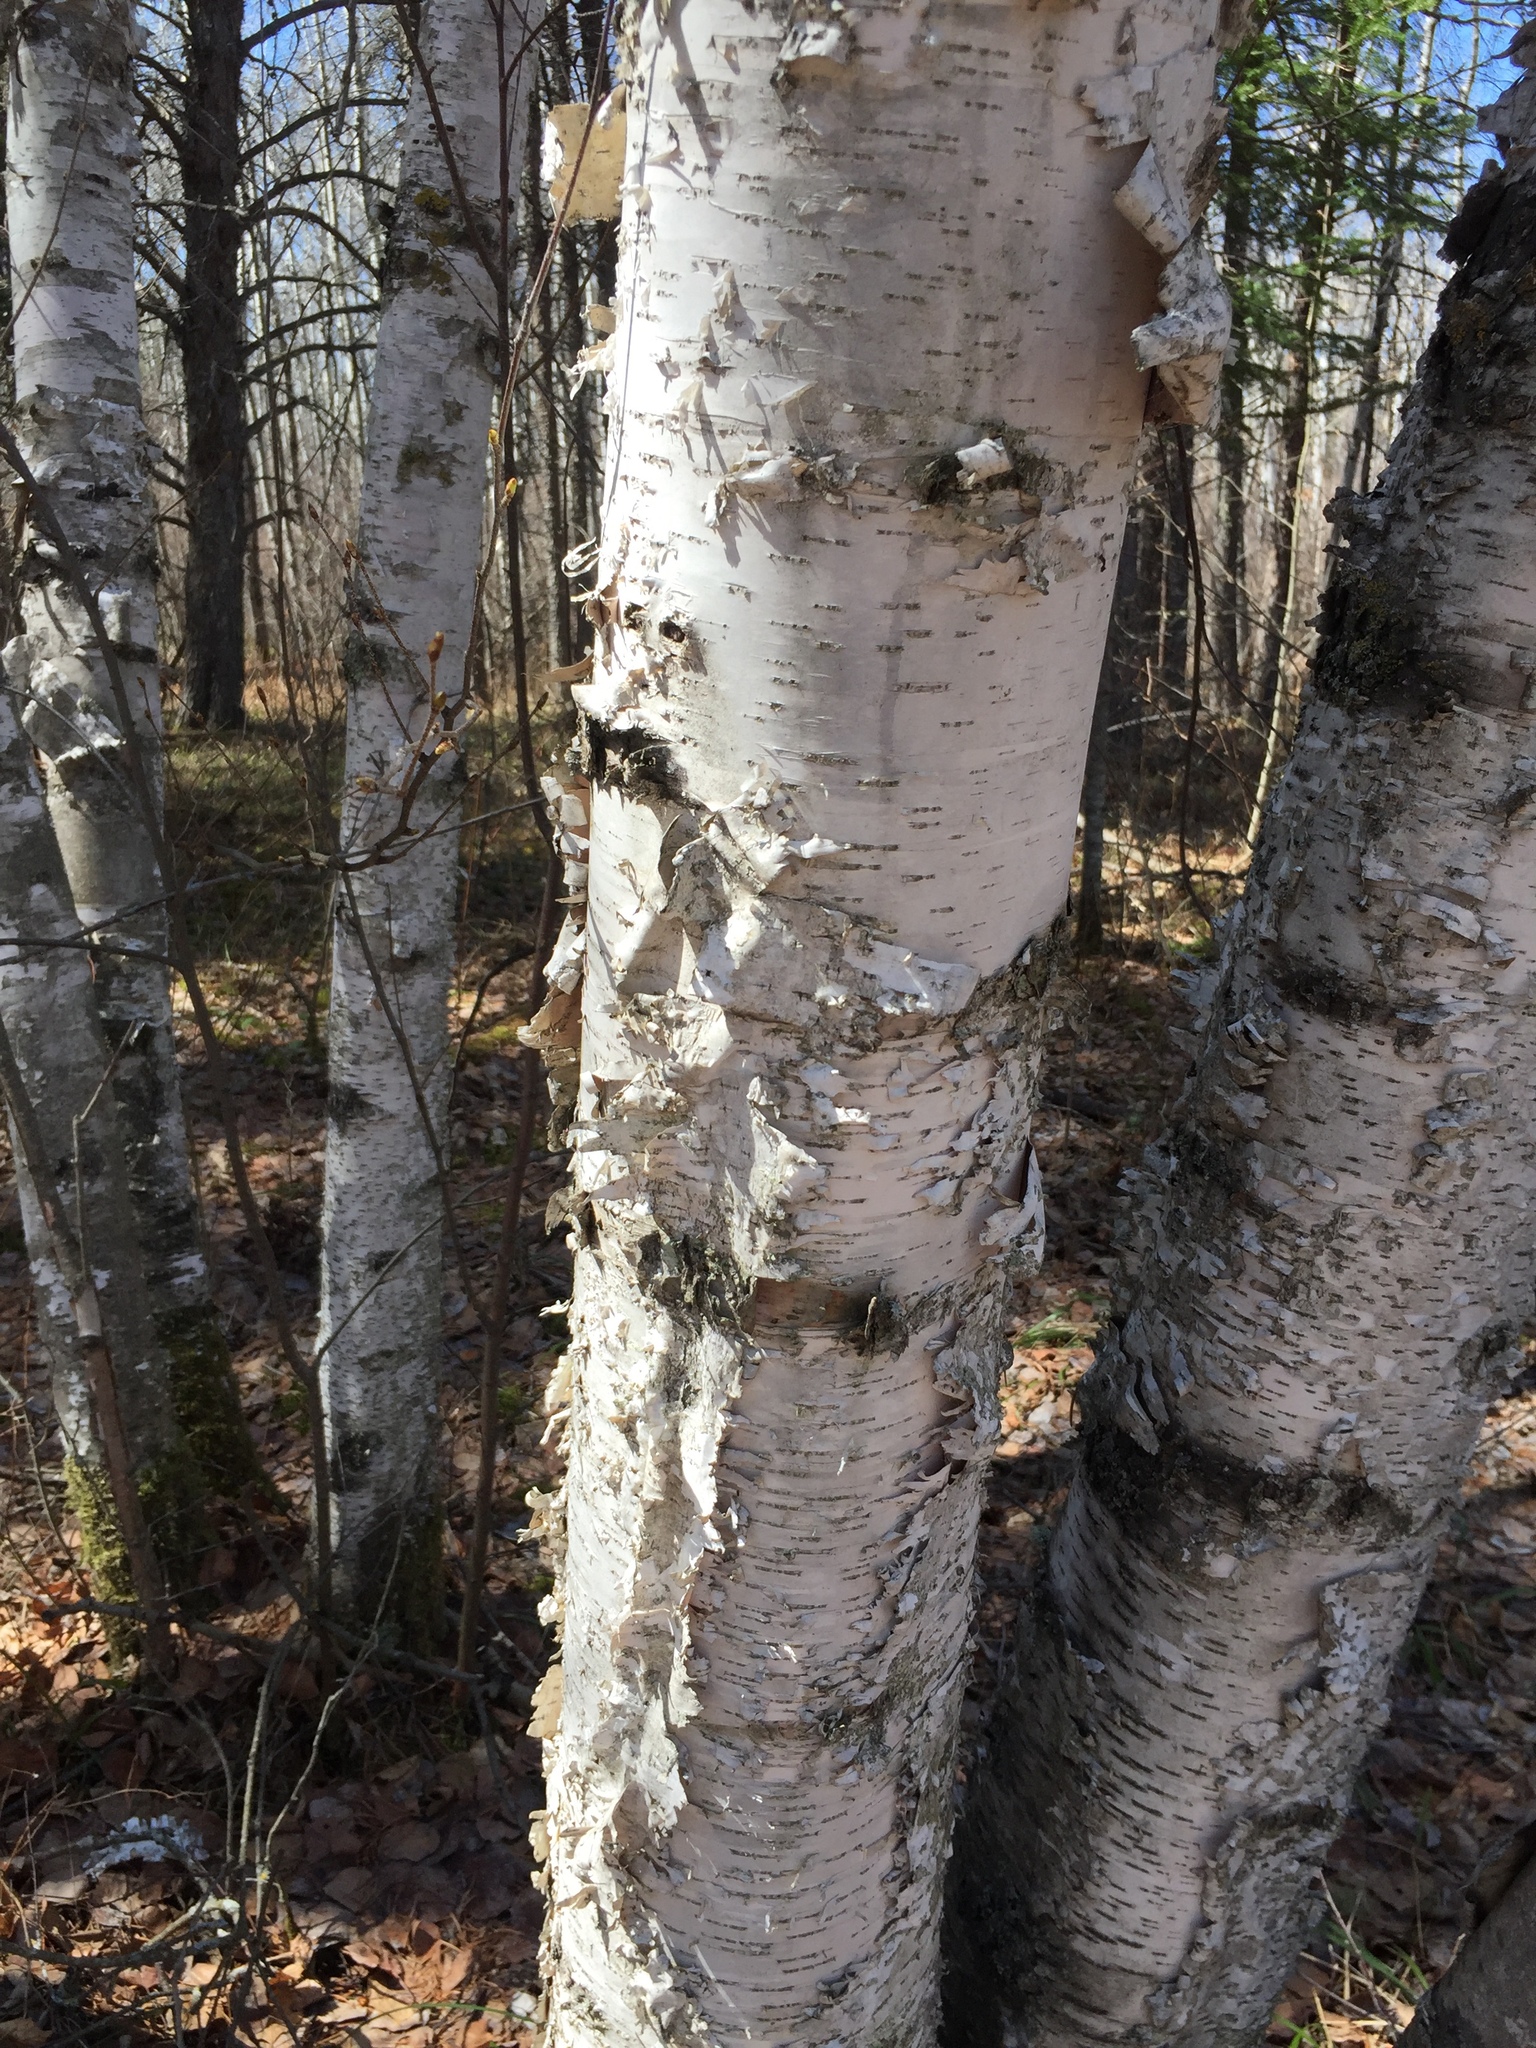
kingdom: Plantae
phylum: Tracheophyta
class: Magnoliopsida
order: Fagales
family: Betulaceae
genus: Betula
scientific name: Betula papyrifera
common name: Paper birch
